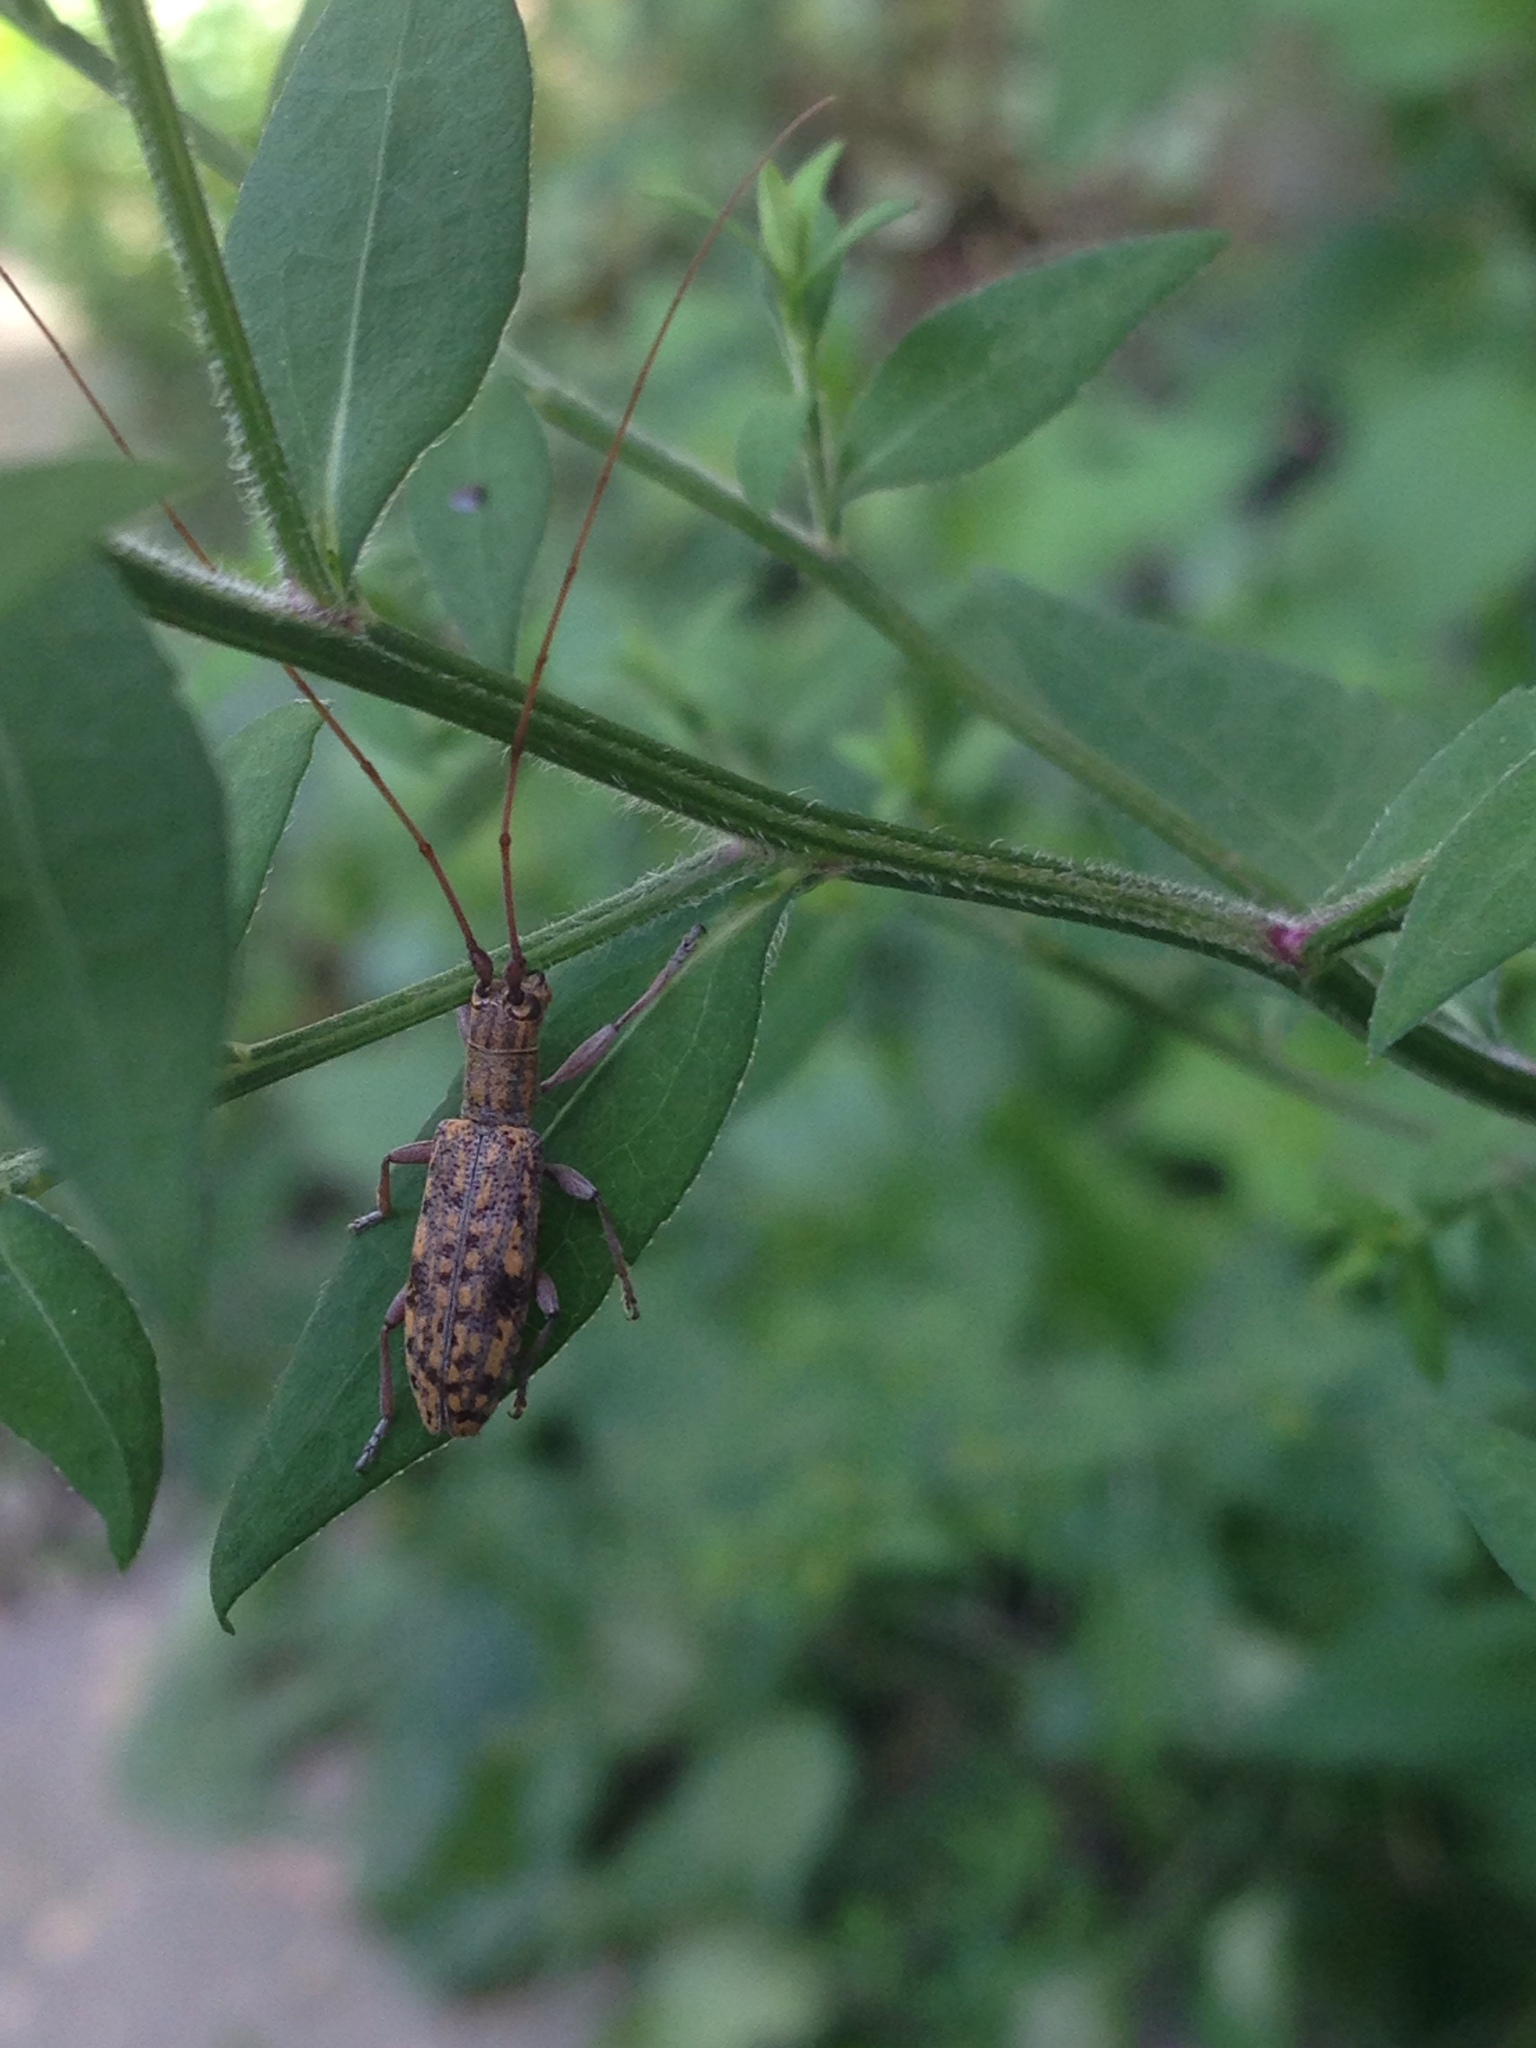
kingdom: Animalia
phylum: Arthropoda
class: Insecta
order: Coleoptera
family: Cerambycidae
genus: Dorcaschema
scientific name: Dorcaschema alternatum
